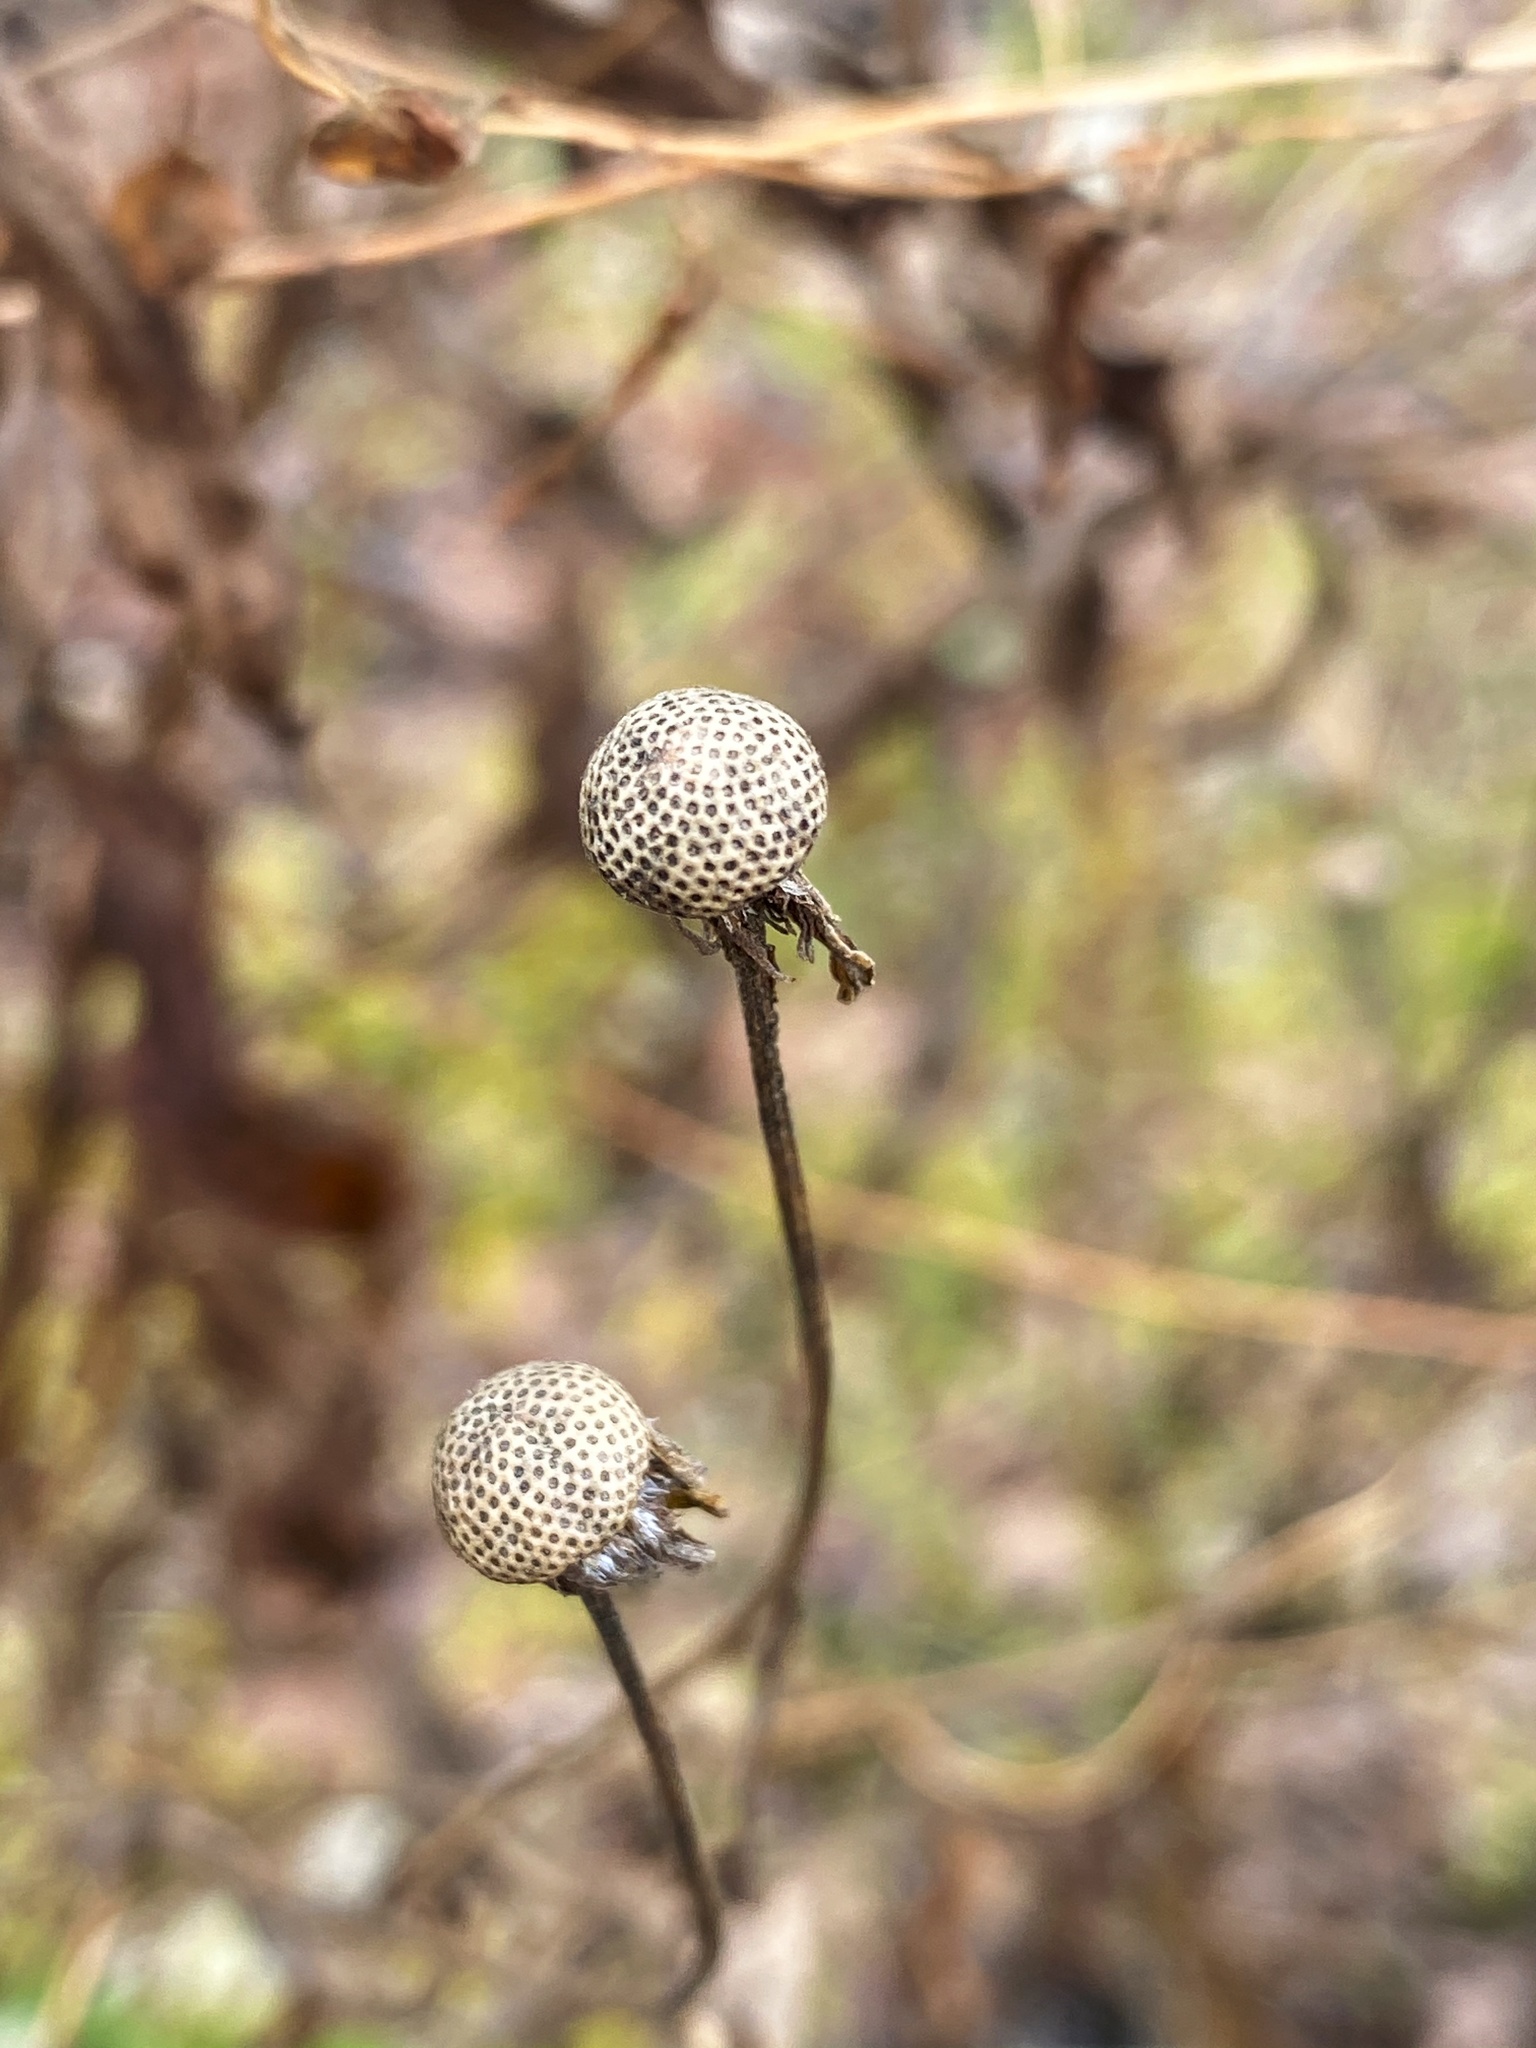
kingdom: Plantae
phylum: Tracheophyta
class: Magnoliopsida
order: Asterales
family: Asteraceae
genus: Helenium
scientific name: Helenium autumnale
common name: Sneezeweed
